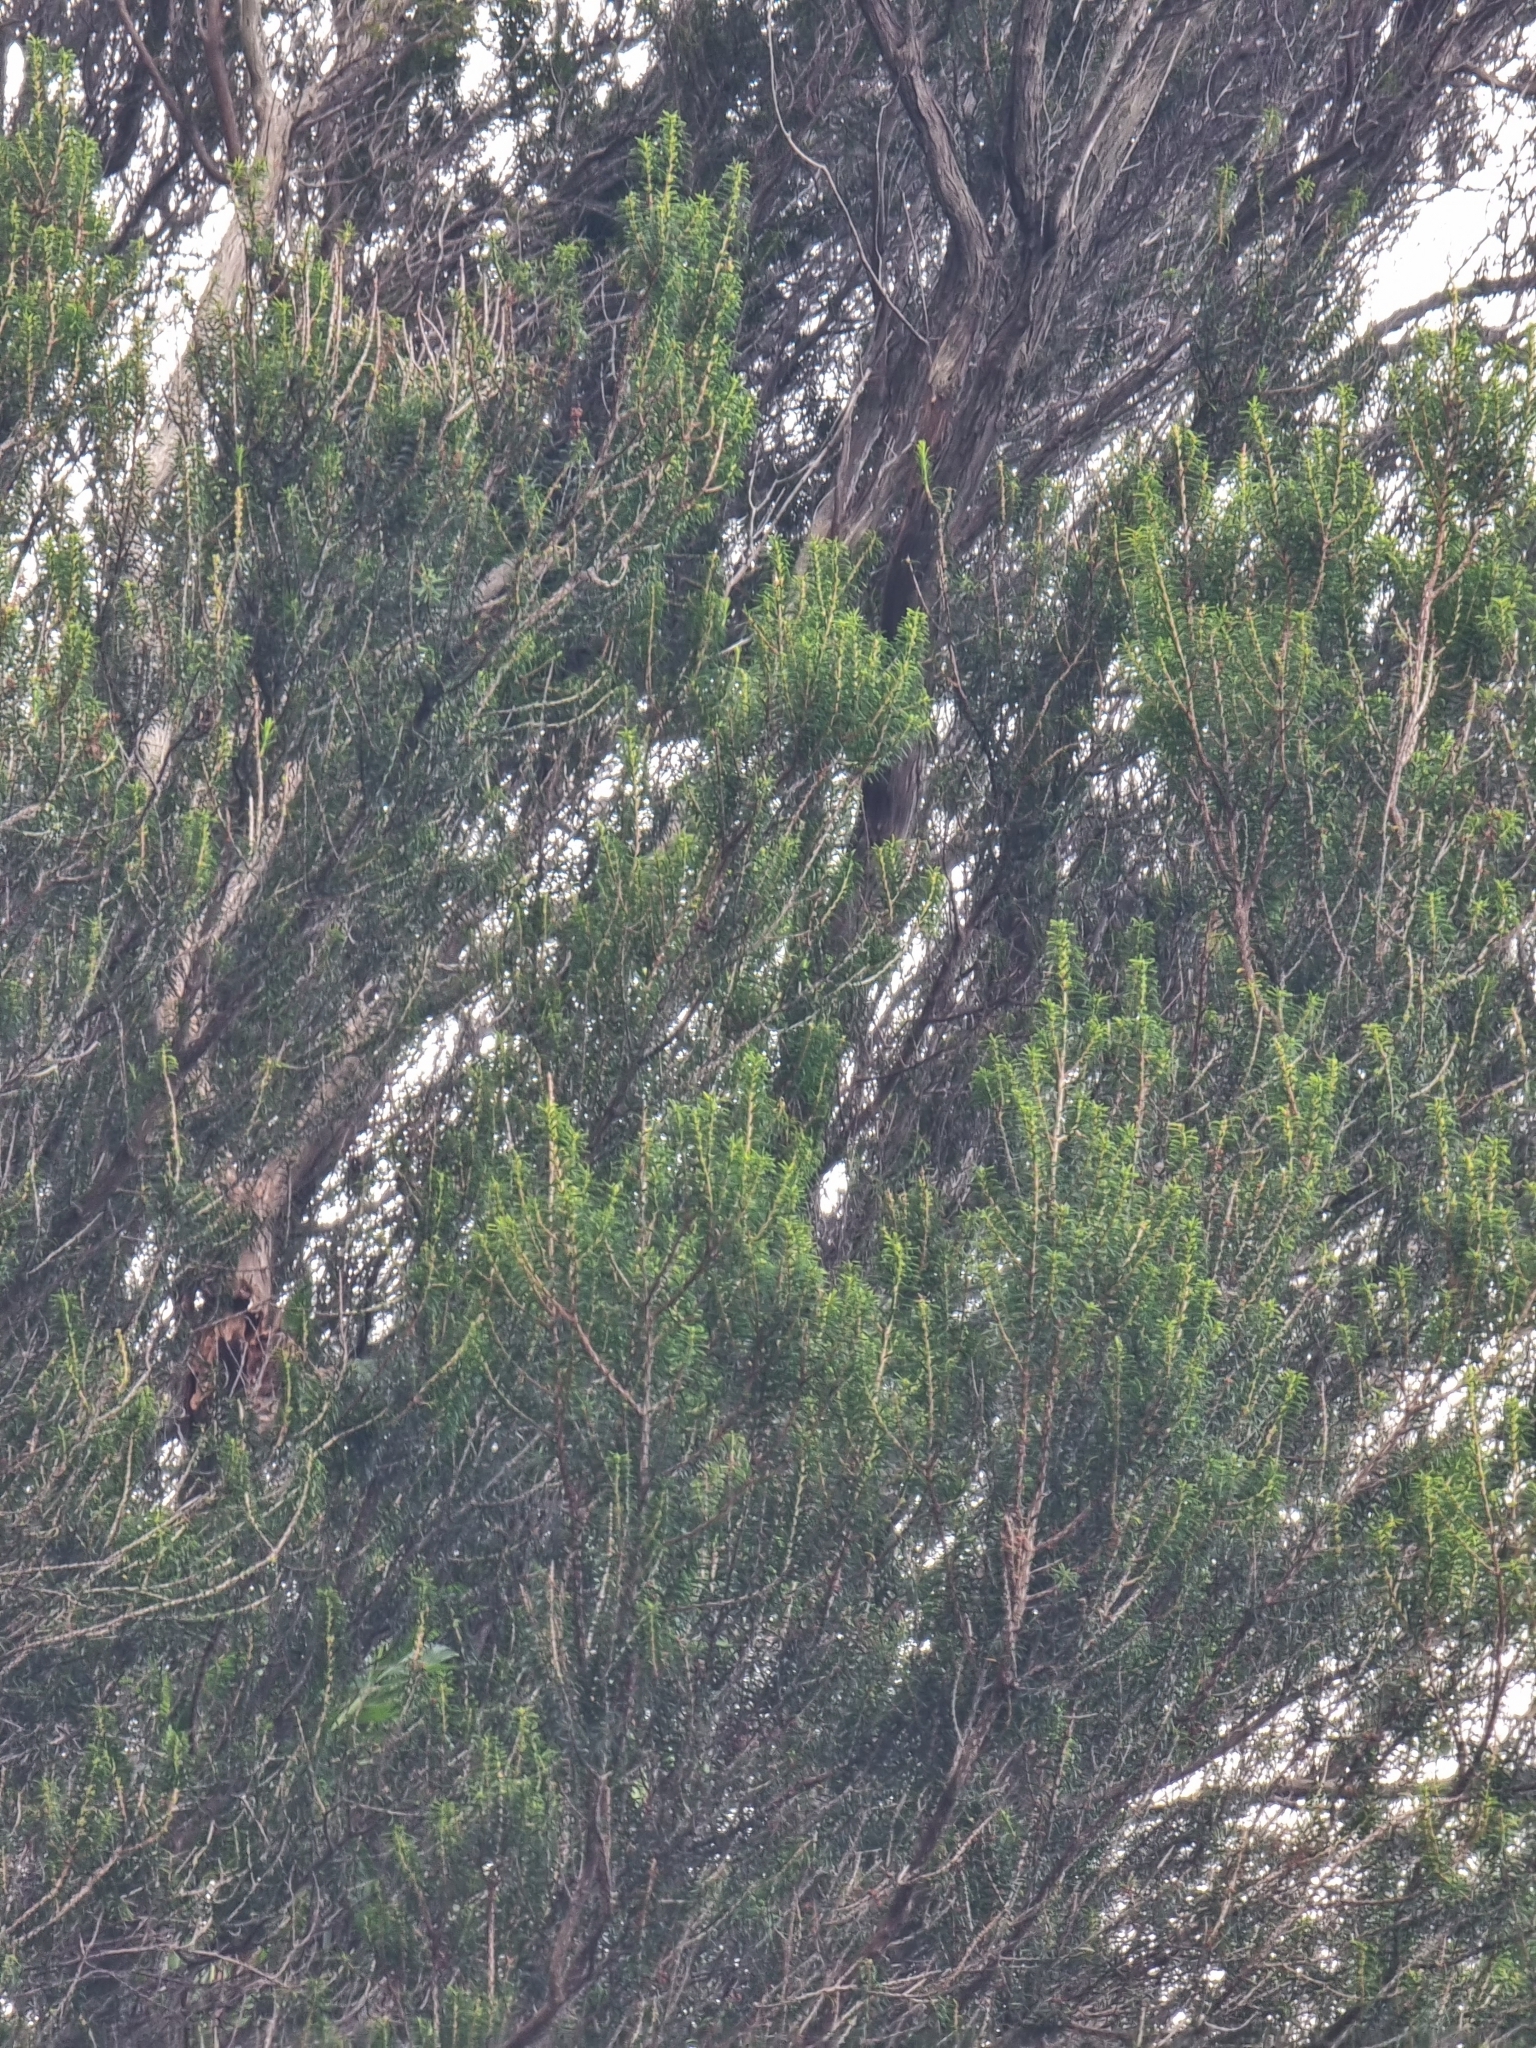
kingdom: Plantae
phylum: Tracheophyta
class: Magnoliopsida
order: Ericales
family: Ericaceae
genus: Erica
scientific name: Erica platycodon
